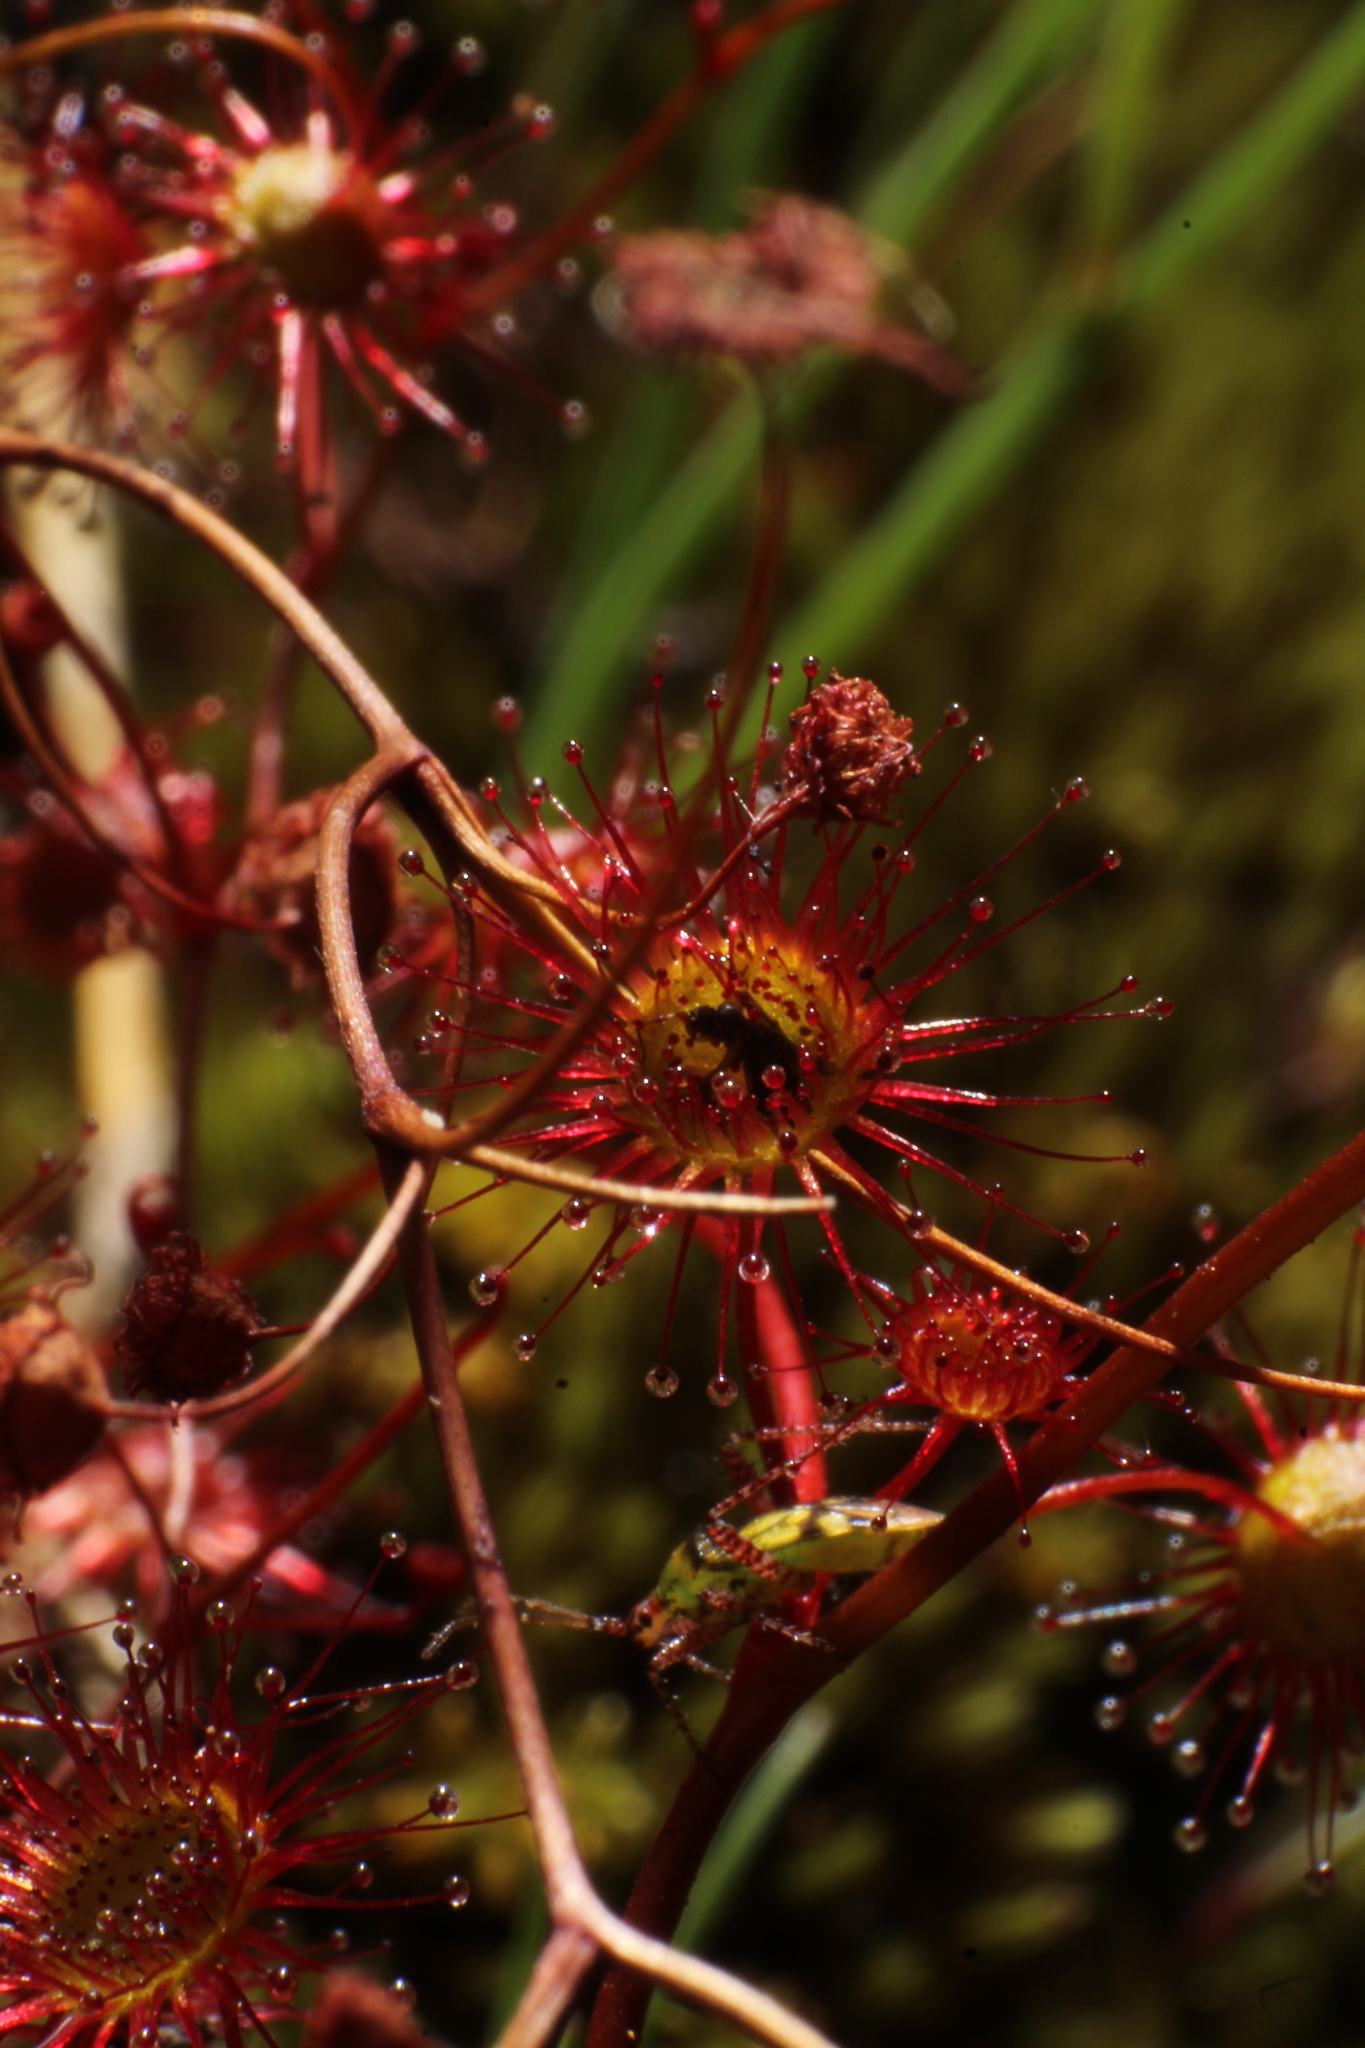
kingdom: Plantae
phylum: Tracheophyta
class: Magnoliopsida
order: Caryophyllales
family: Droseraceae
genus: Drosera
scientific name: Drosera
